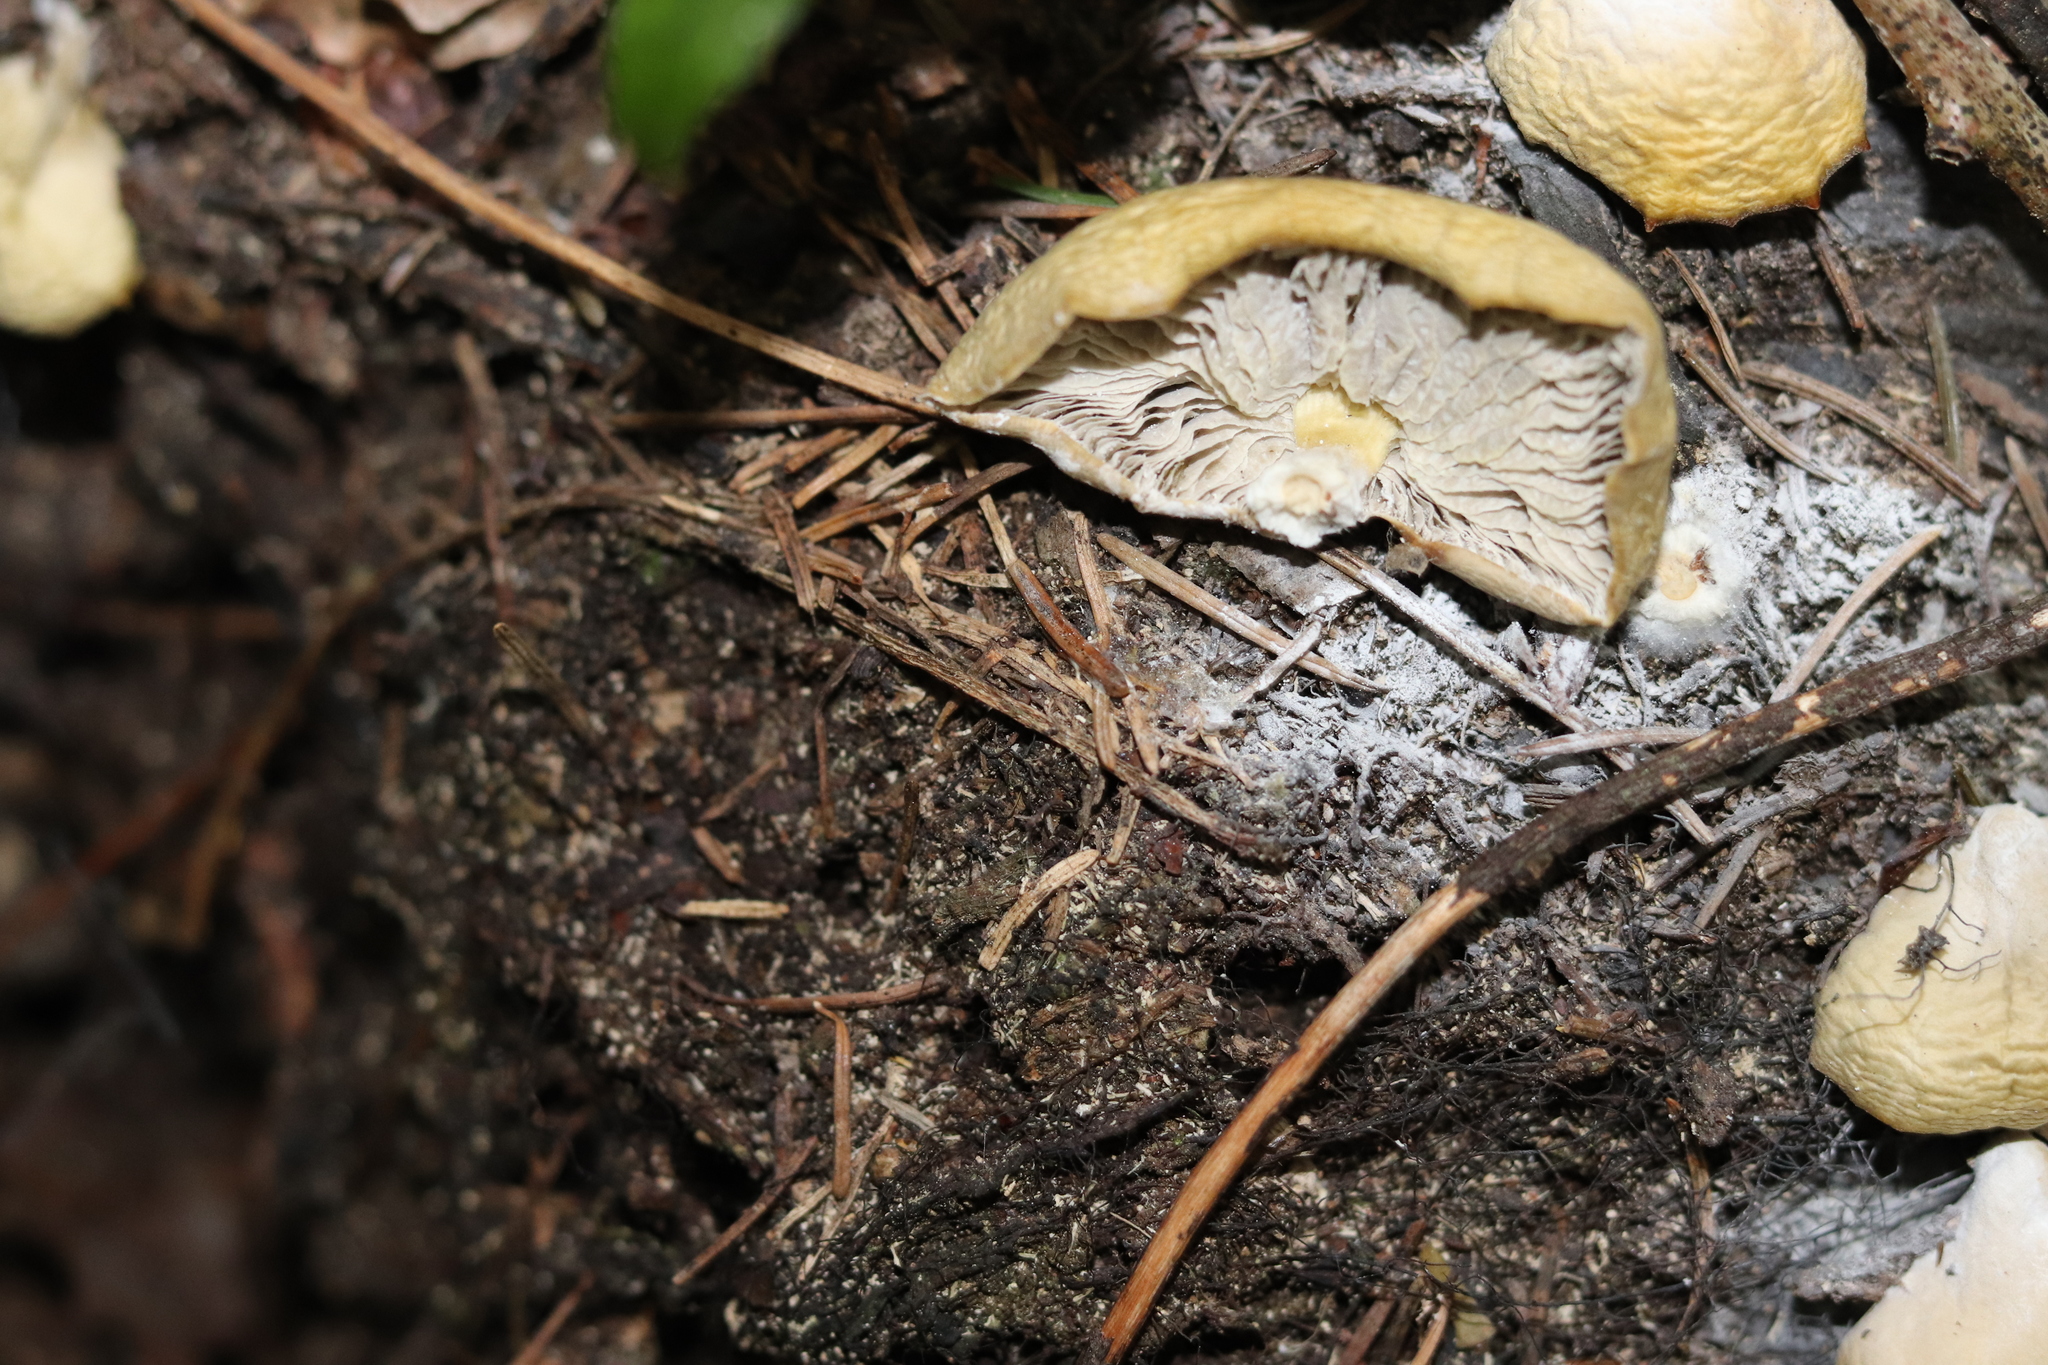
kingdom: Fungi
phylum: Basidiomycota
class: Agaricomycetes
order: Agaricales
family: Tricholomataceae
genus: Conchomyces
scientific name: Conchomyces bursiformis
